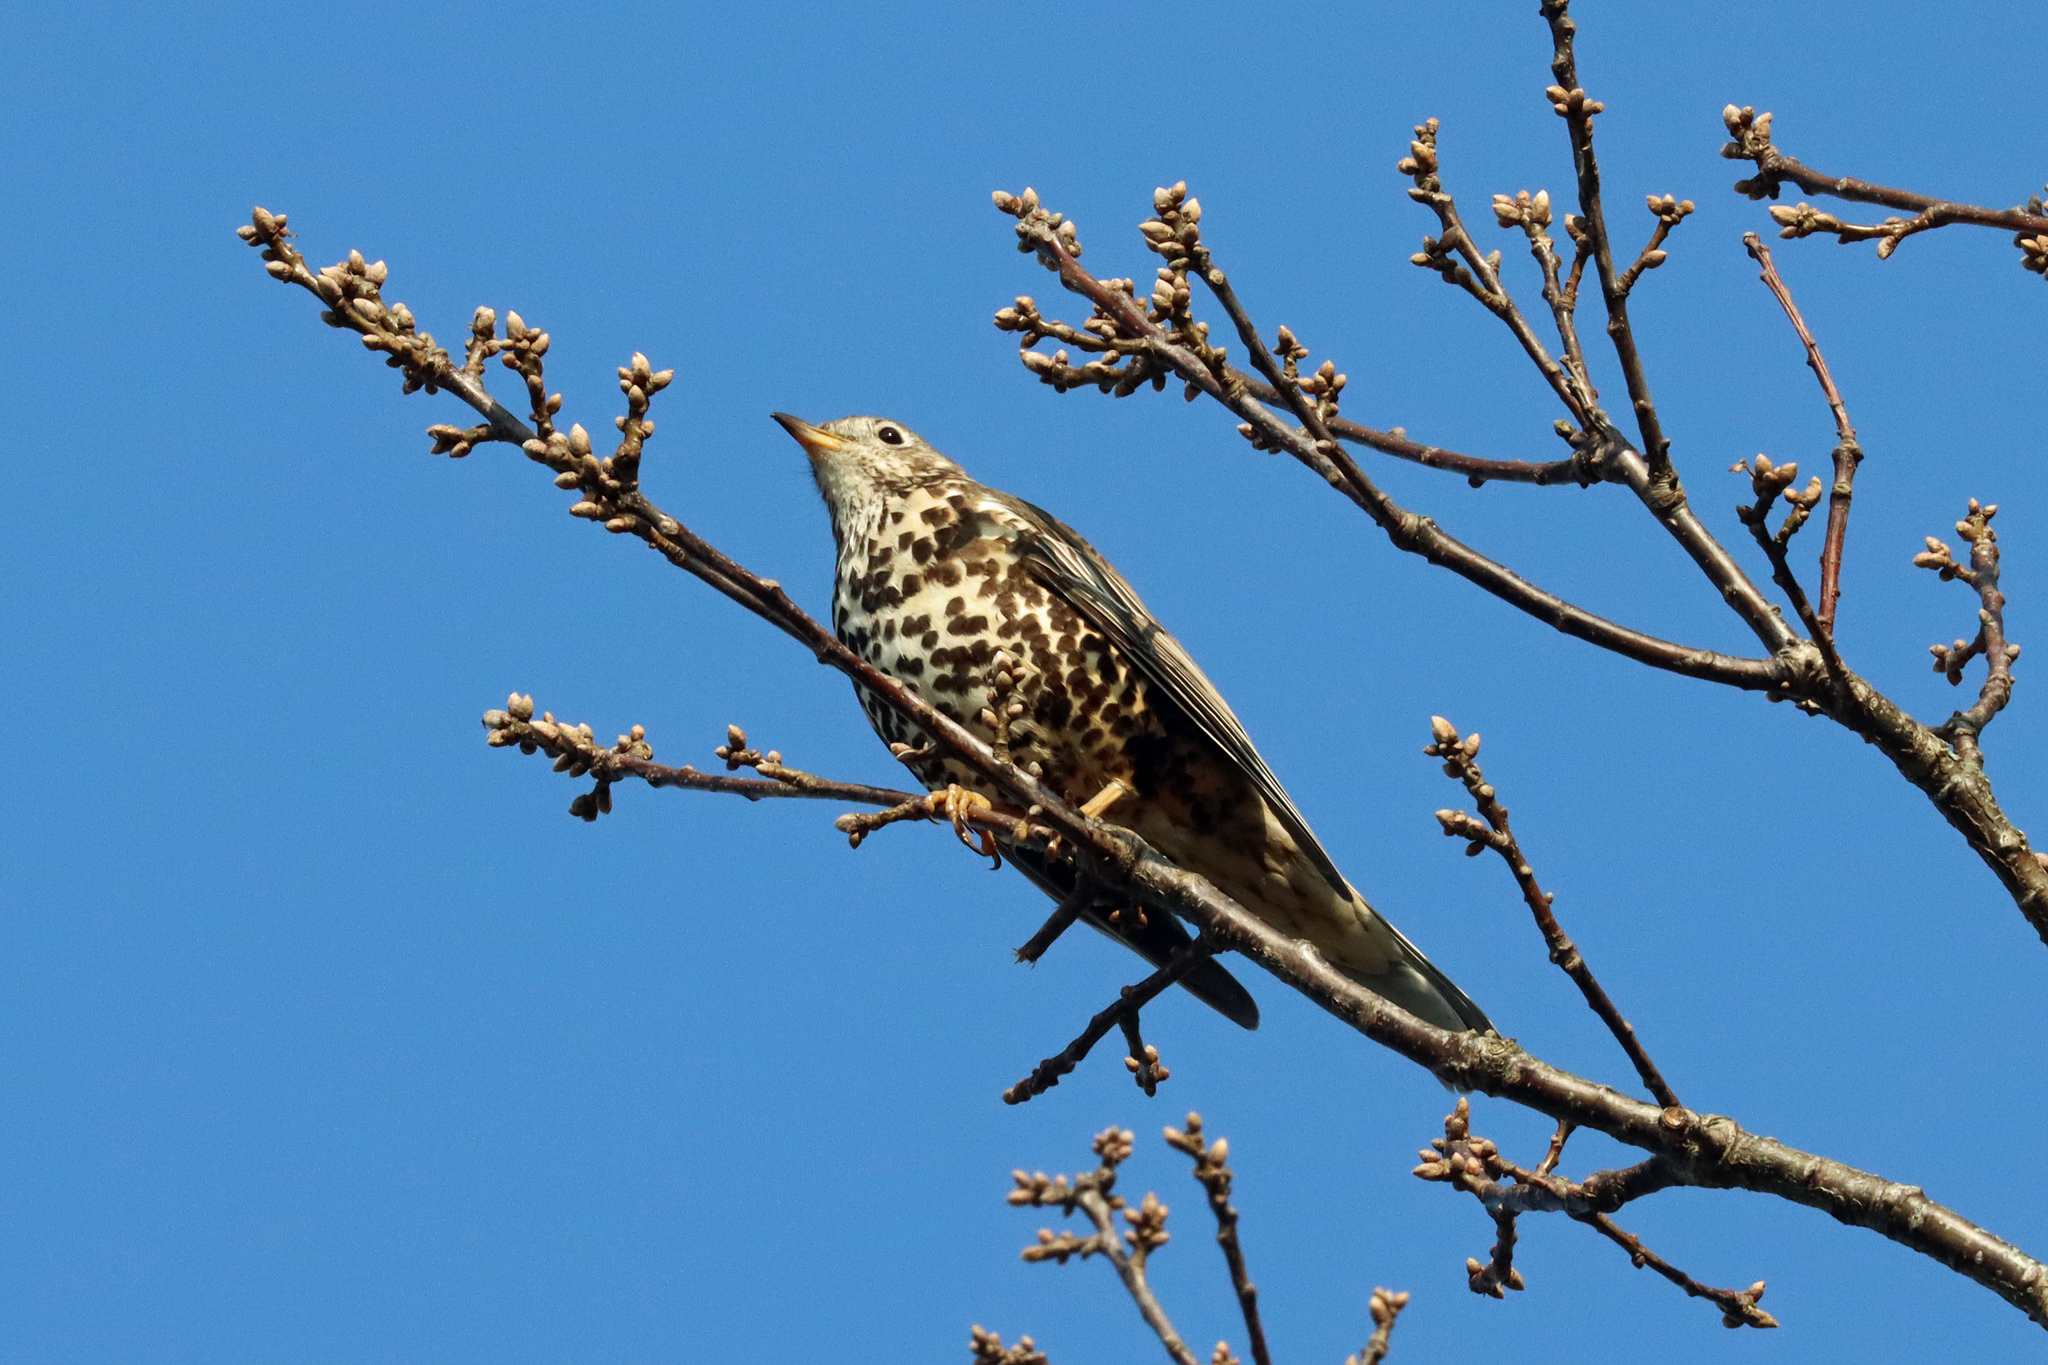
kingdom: Animalia
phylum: Chordata
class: Aves
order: Passeriformes
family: Turdidae
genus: Turdus
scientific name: Turdus viscivorus
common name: Mistle thrush
